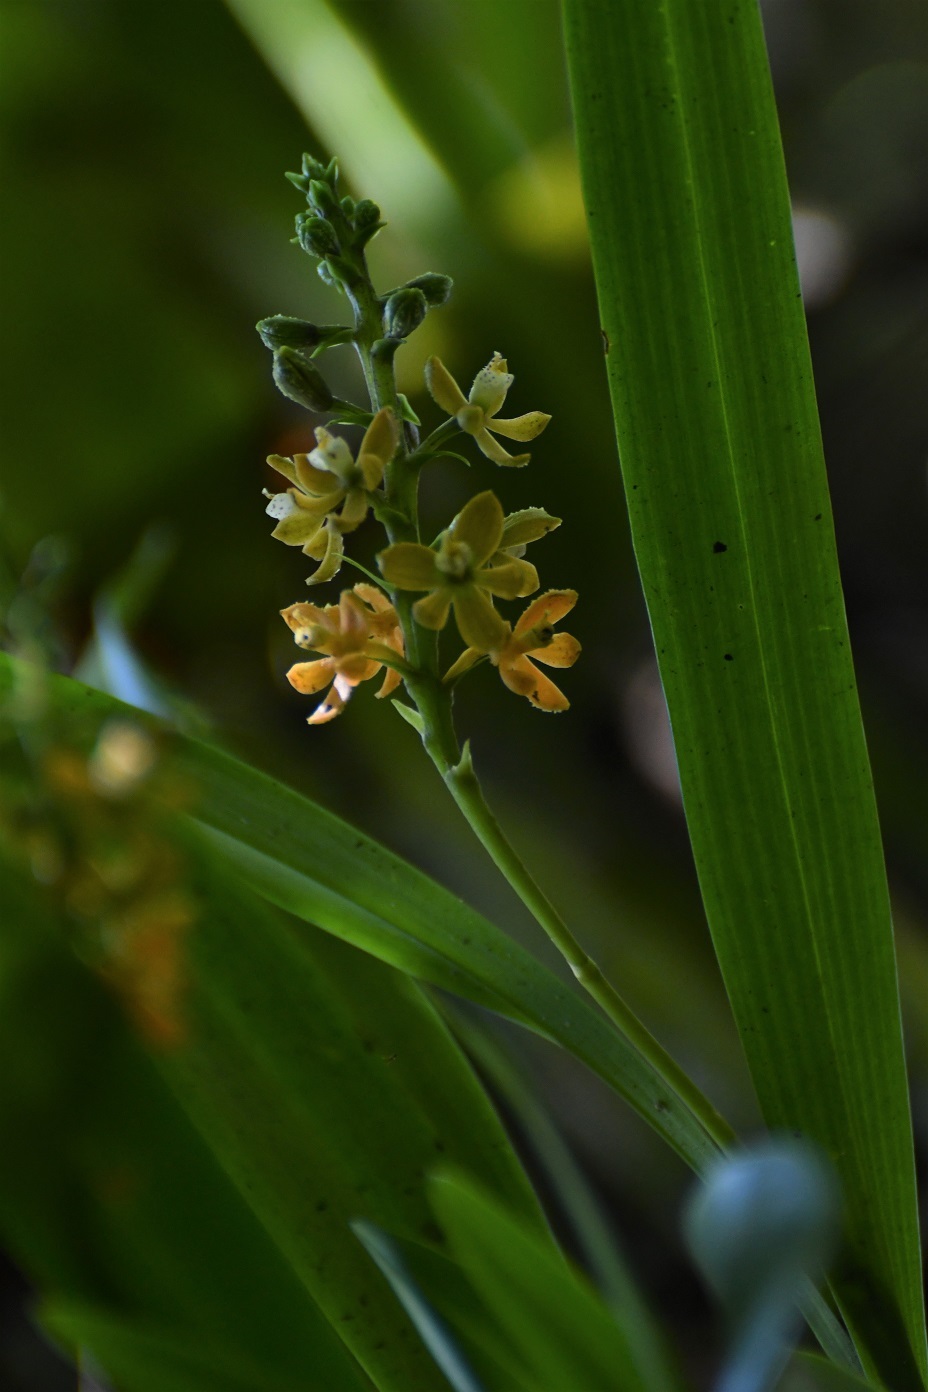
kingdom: Plantae
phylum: Tracheophyta
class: Liliopsida
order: Asparagales
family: Orchidaceae
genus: Prosthechea
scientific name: Prosthechea guttata
